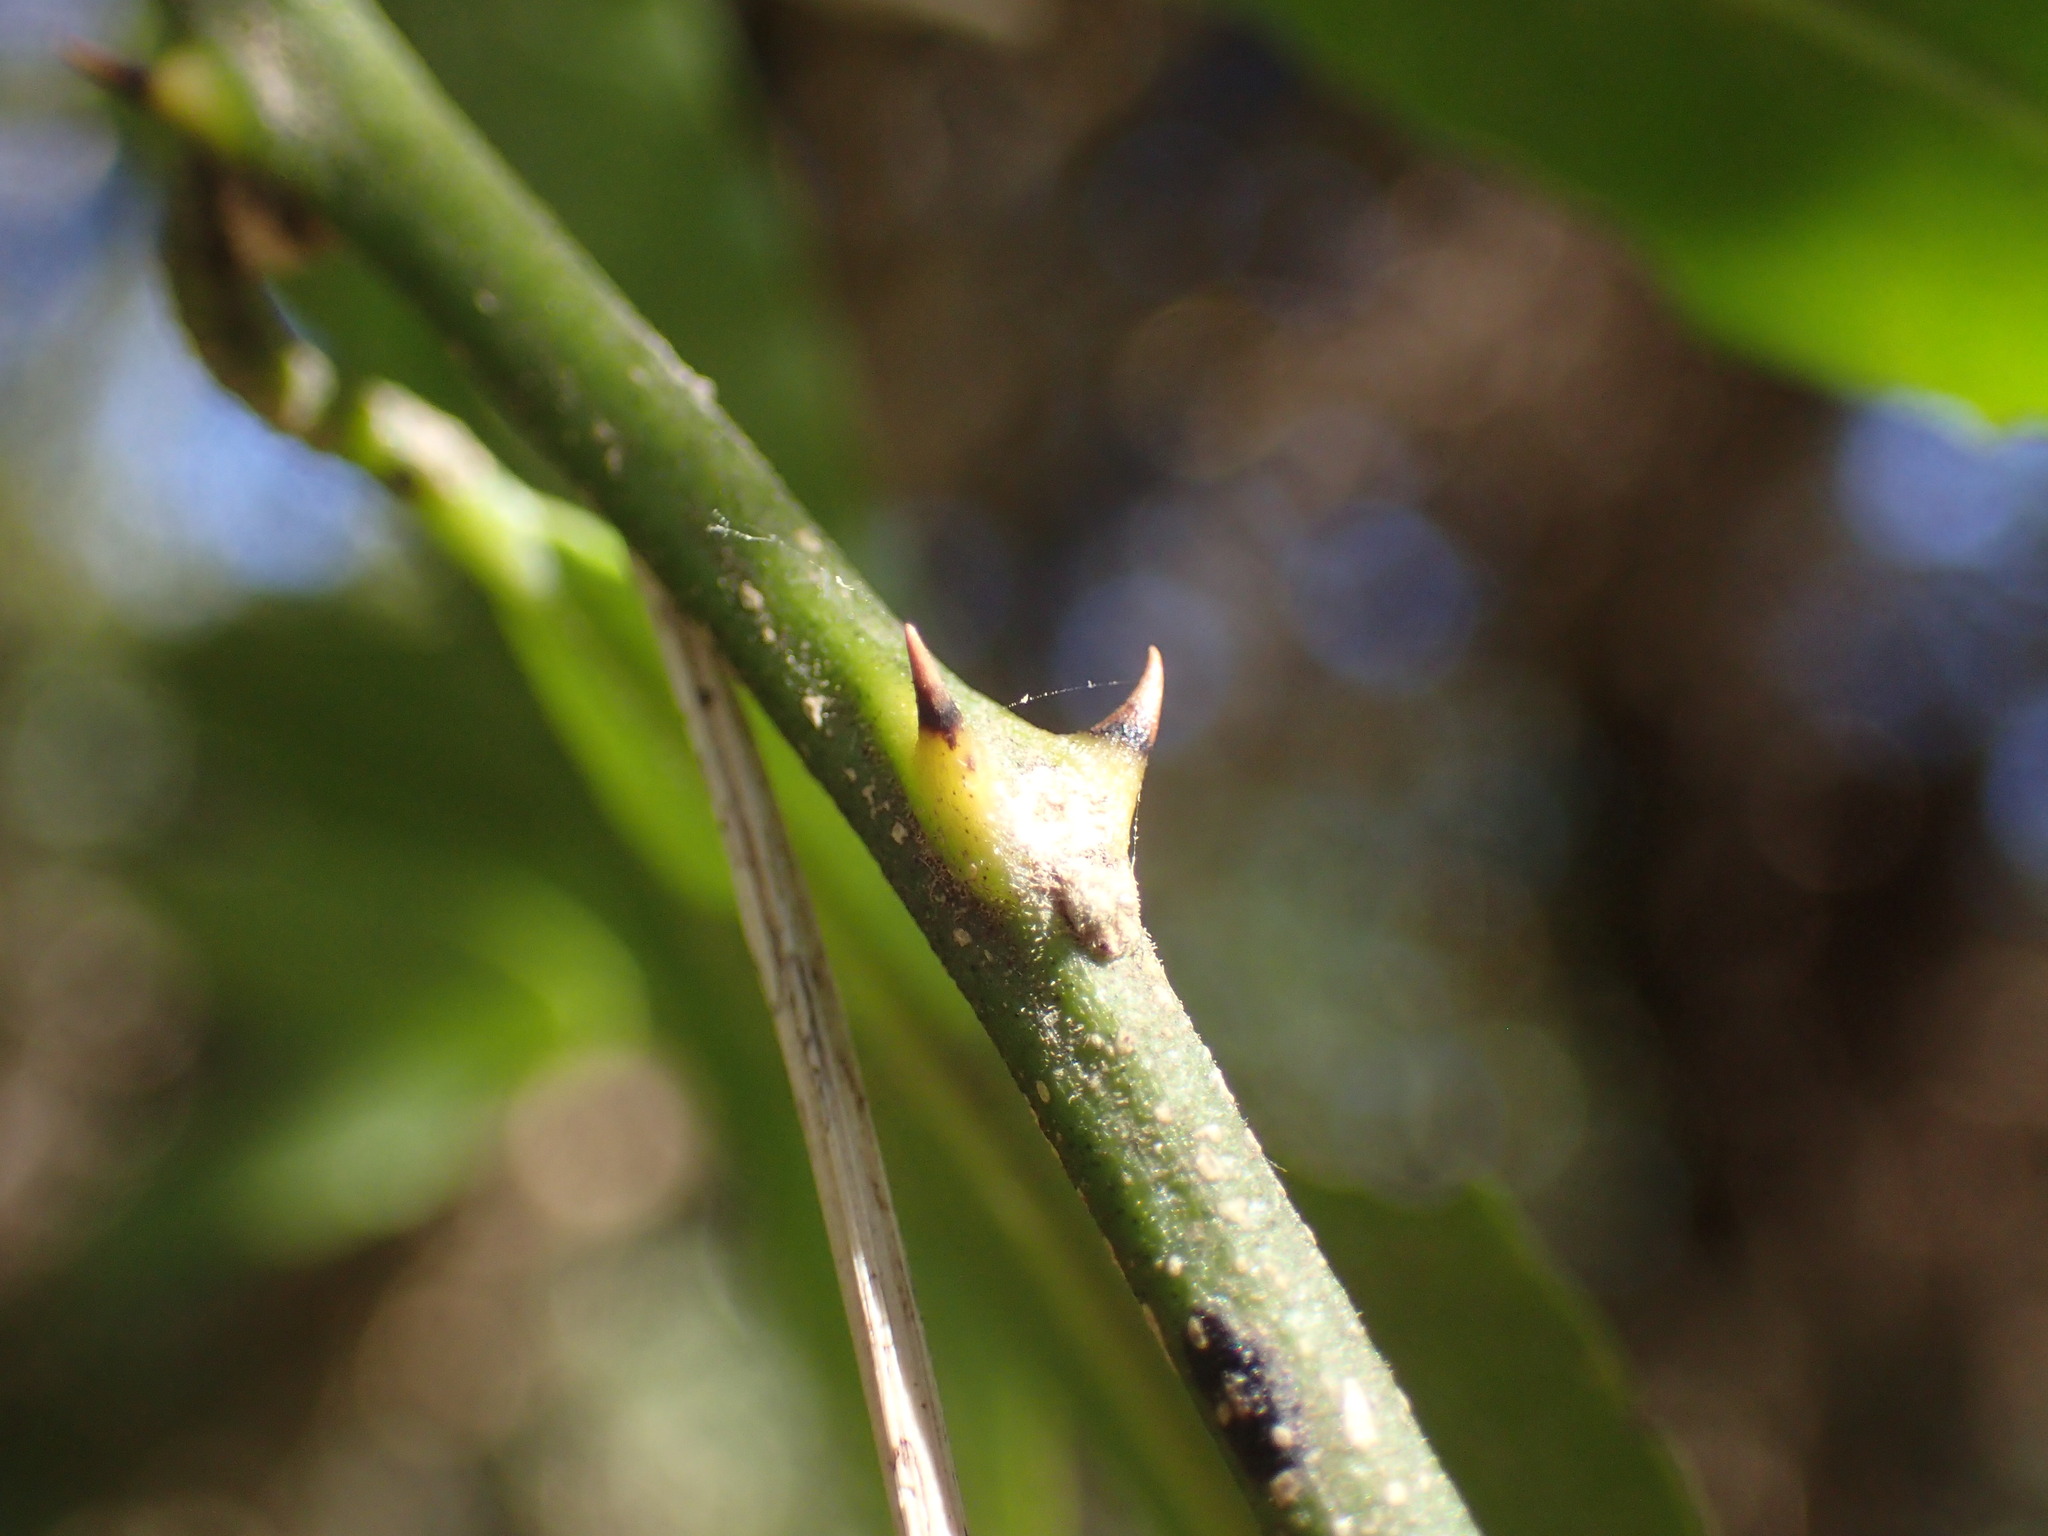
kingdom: Plantae
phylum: Tracheophyta
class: Magnoliopsida
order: Brassicales
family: Capparaceae
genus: Capparis
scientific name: Capparis fascicularis
